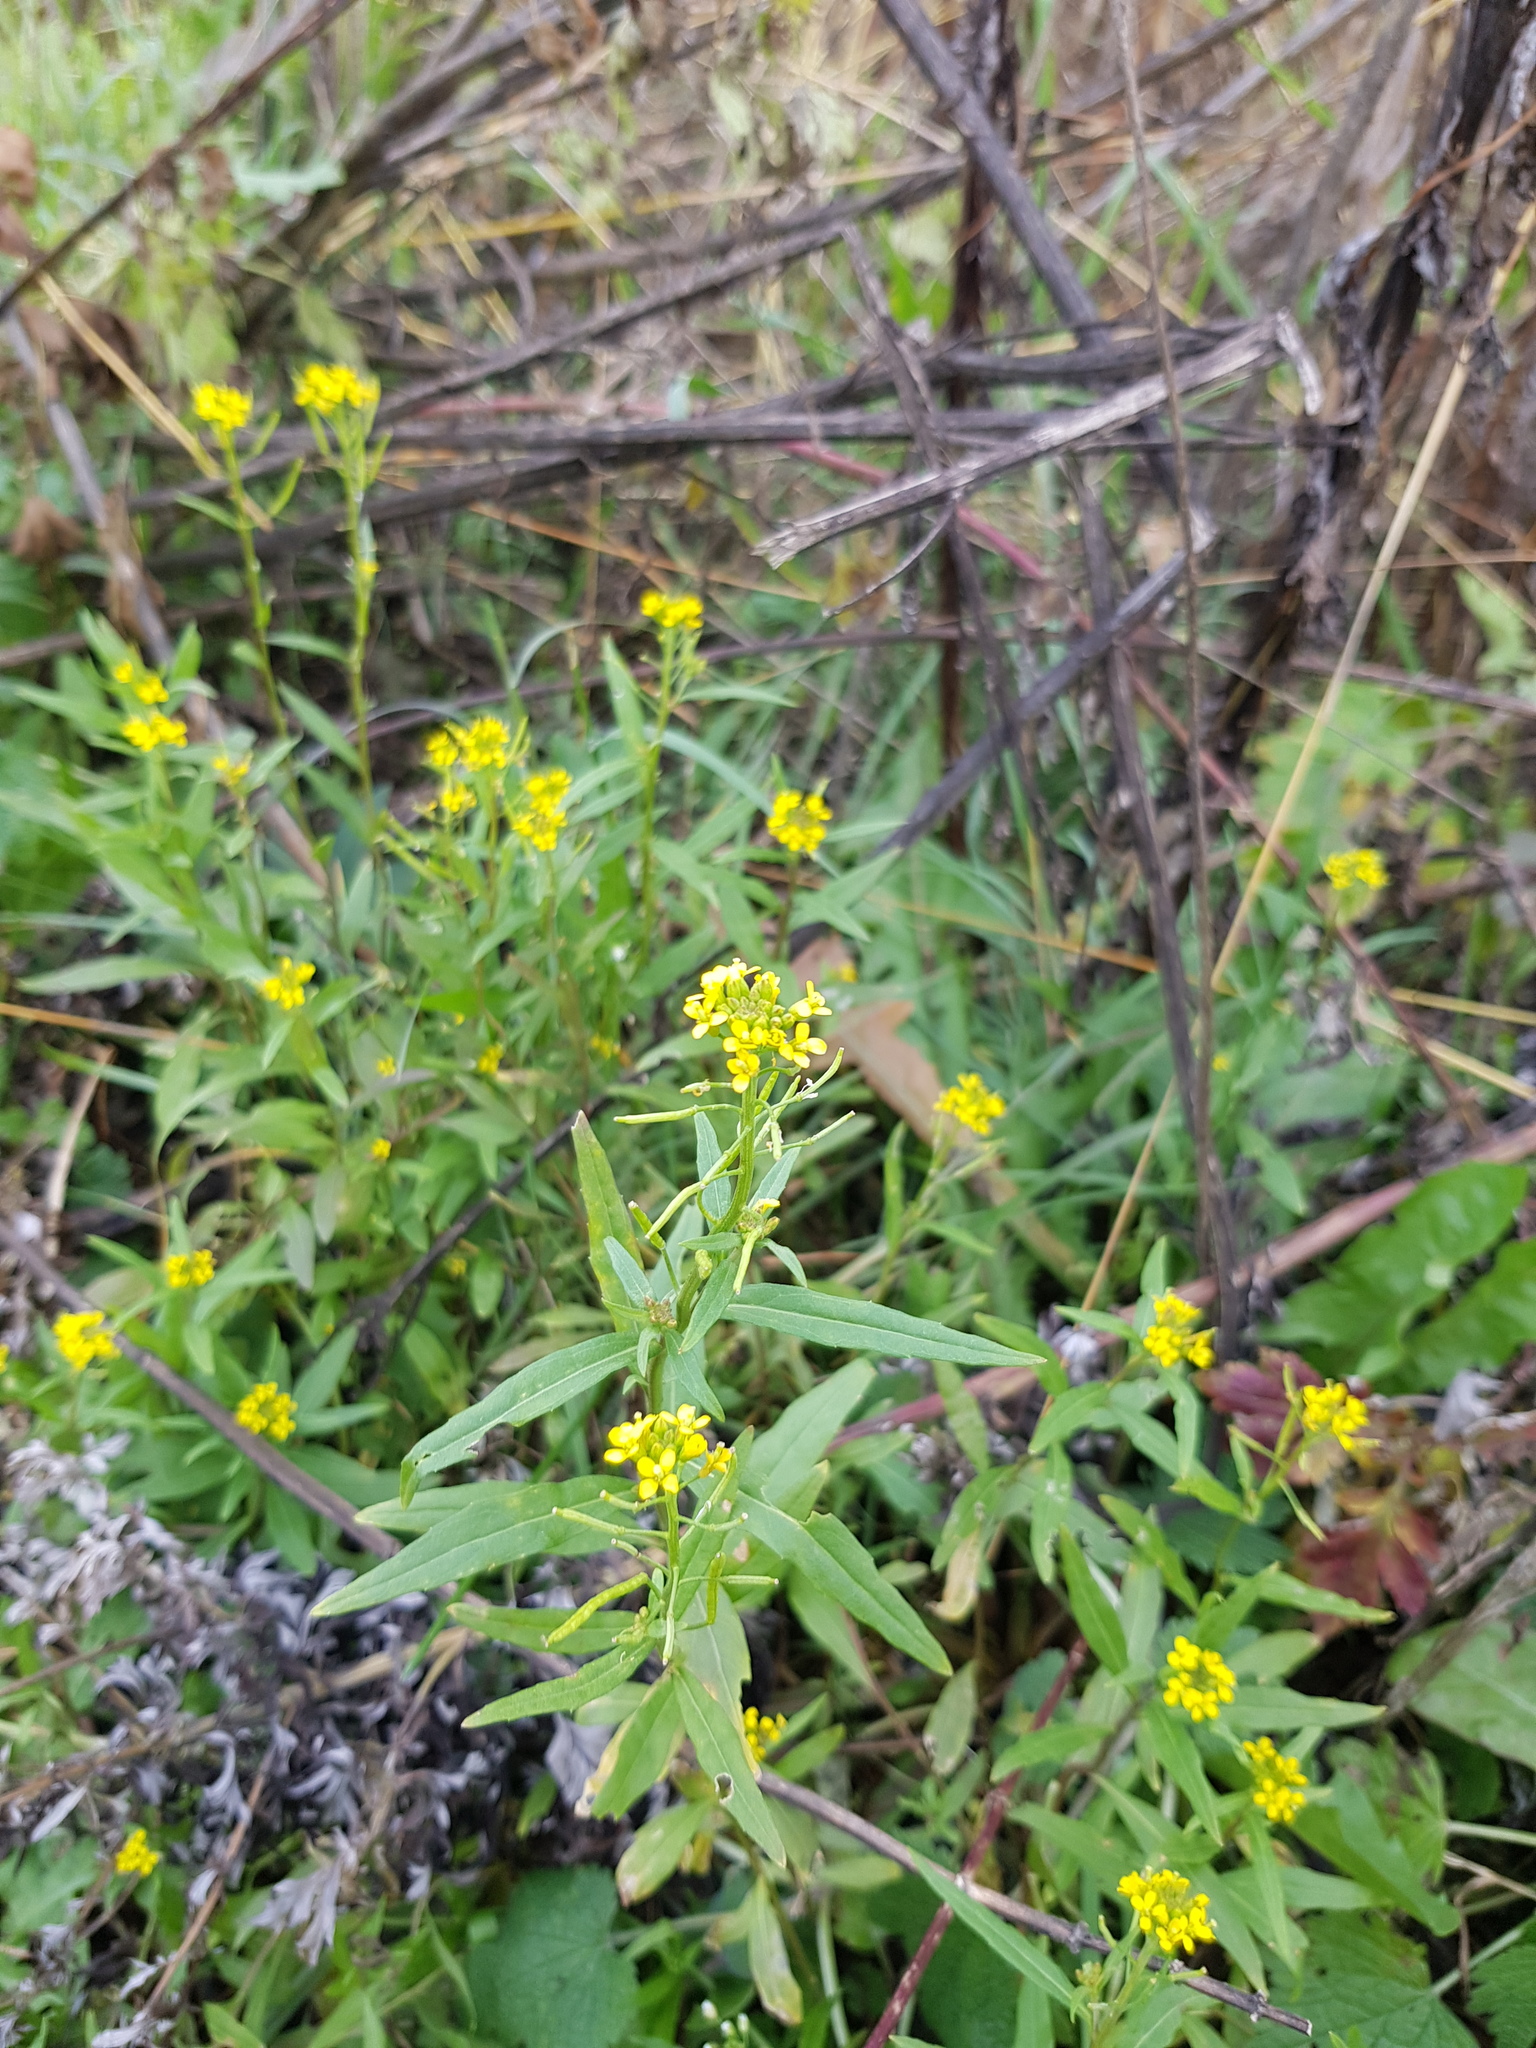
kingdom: Plantae
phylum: Tracheophyta
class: Magnoliopsida
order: Brassicales
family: Brassicaceae
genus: Erysimum
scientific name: Erysimum cheiranthoides
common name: Treacle mustard
